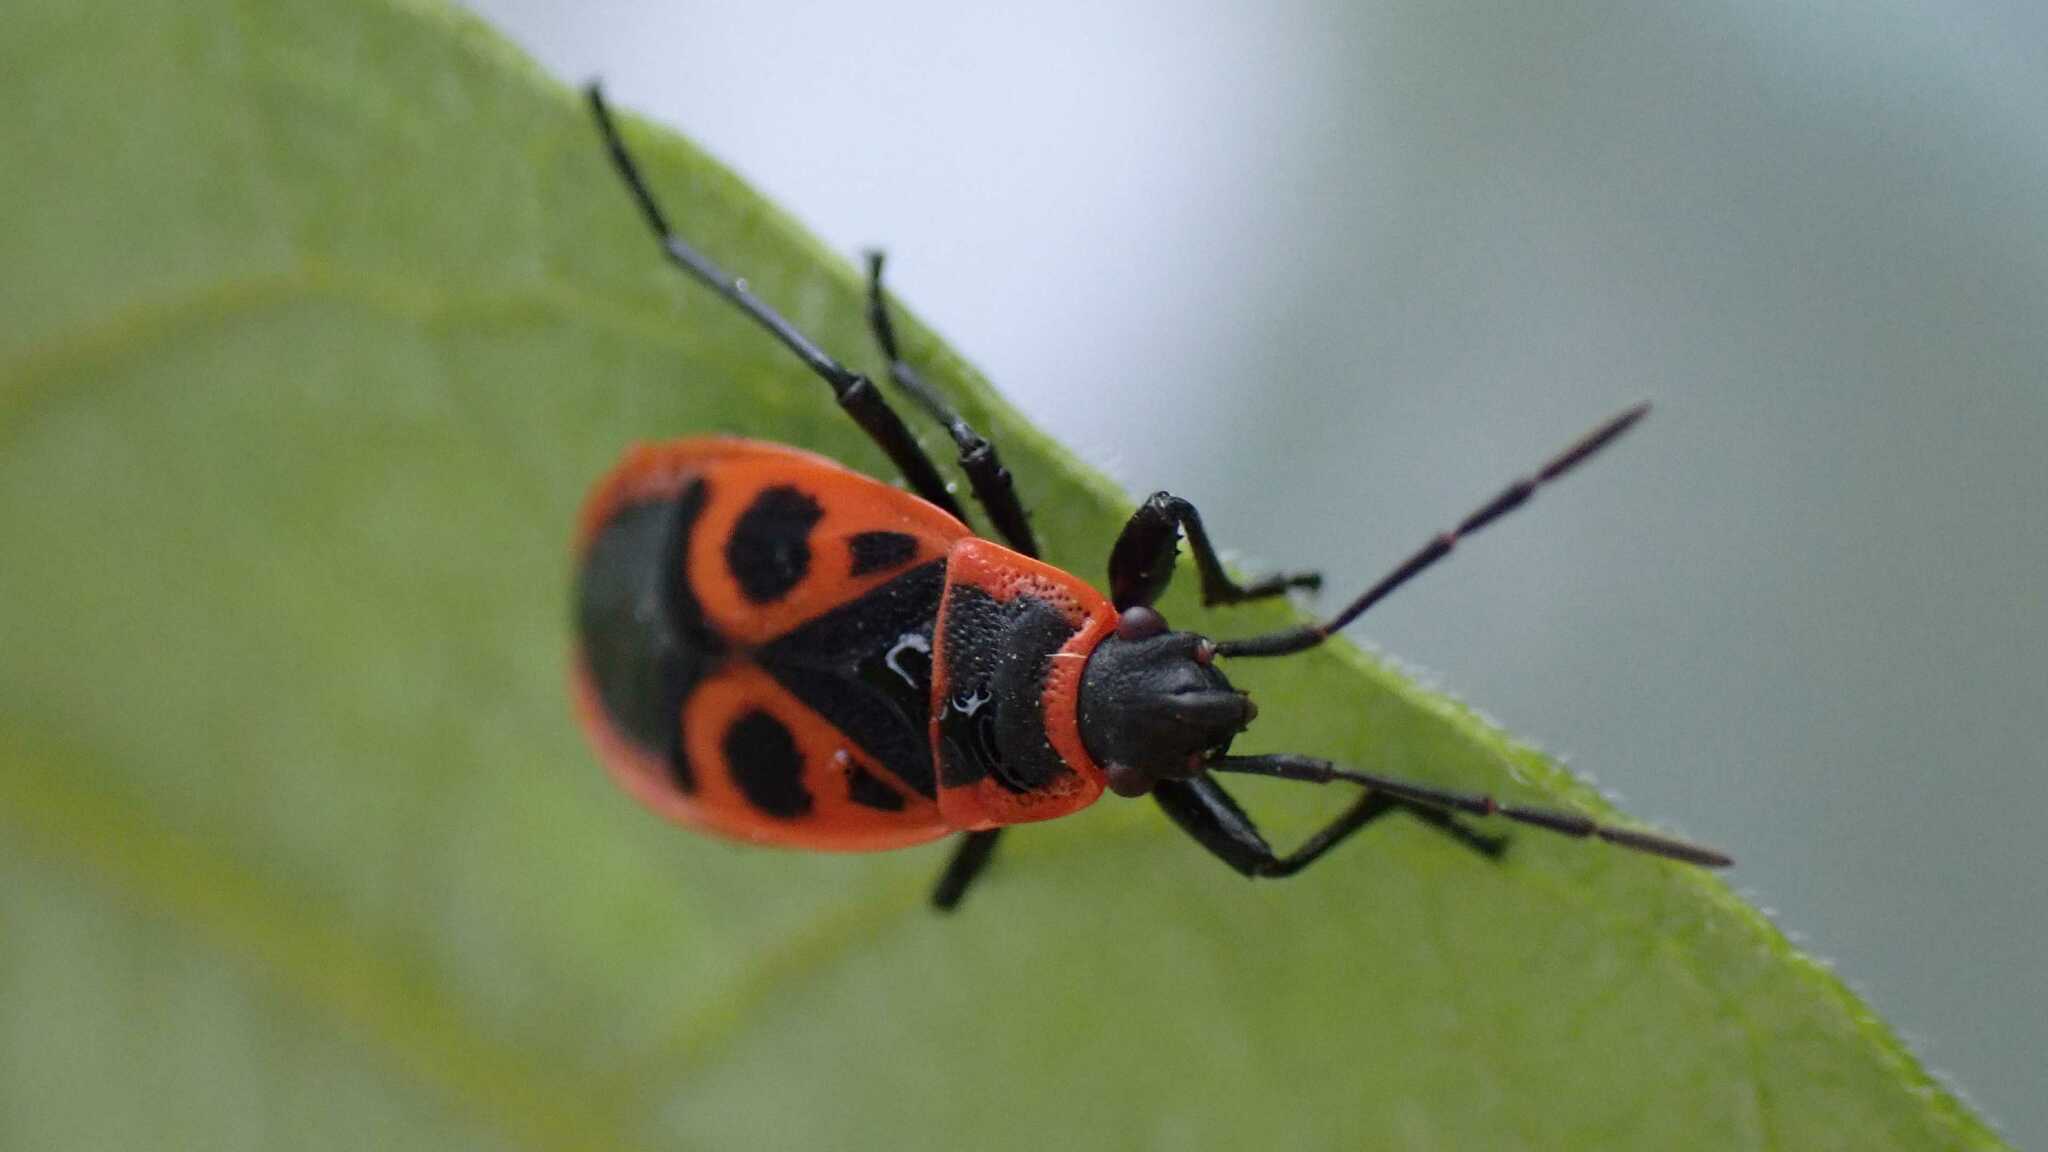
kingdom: Animalia
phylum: Arthropoda
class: Insecta
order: Hemiptera
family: Pyrrhocoridae
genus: Pyrrhocoris
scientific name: Pyrrhocoris apterus
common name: Firebug
